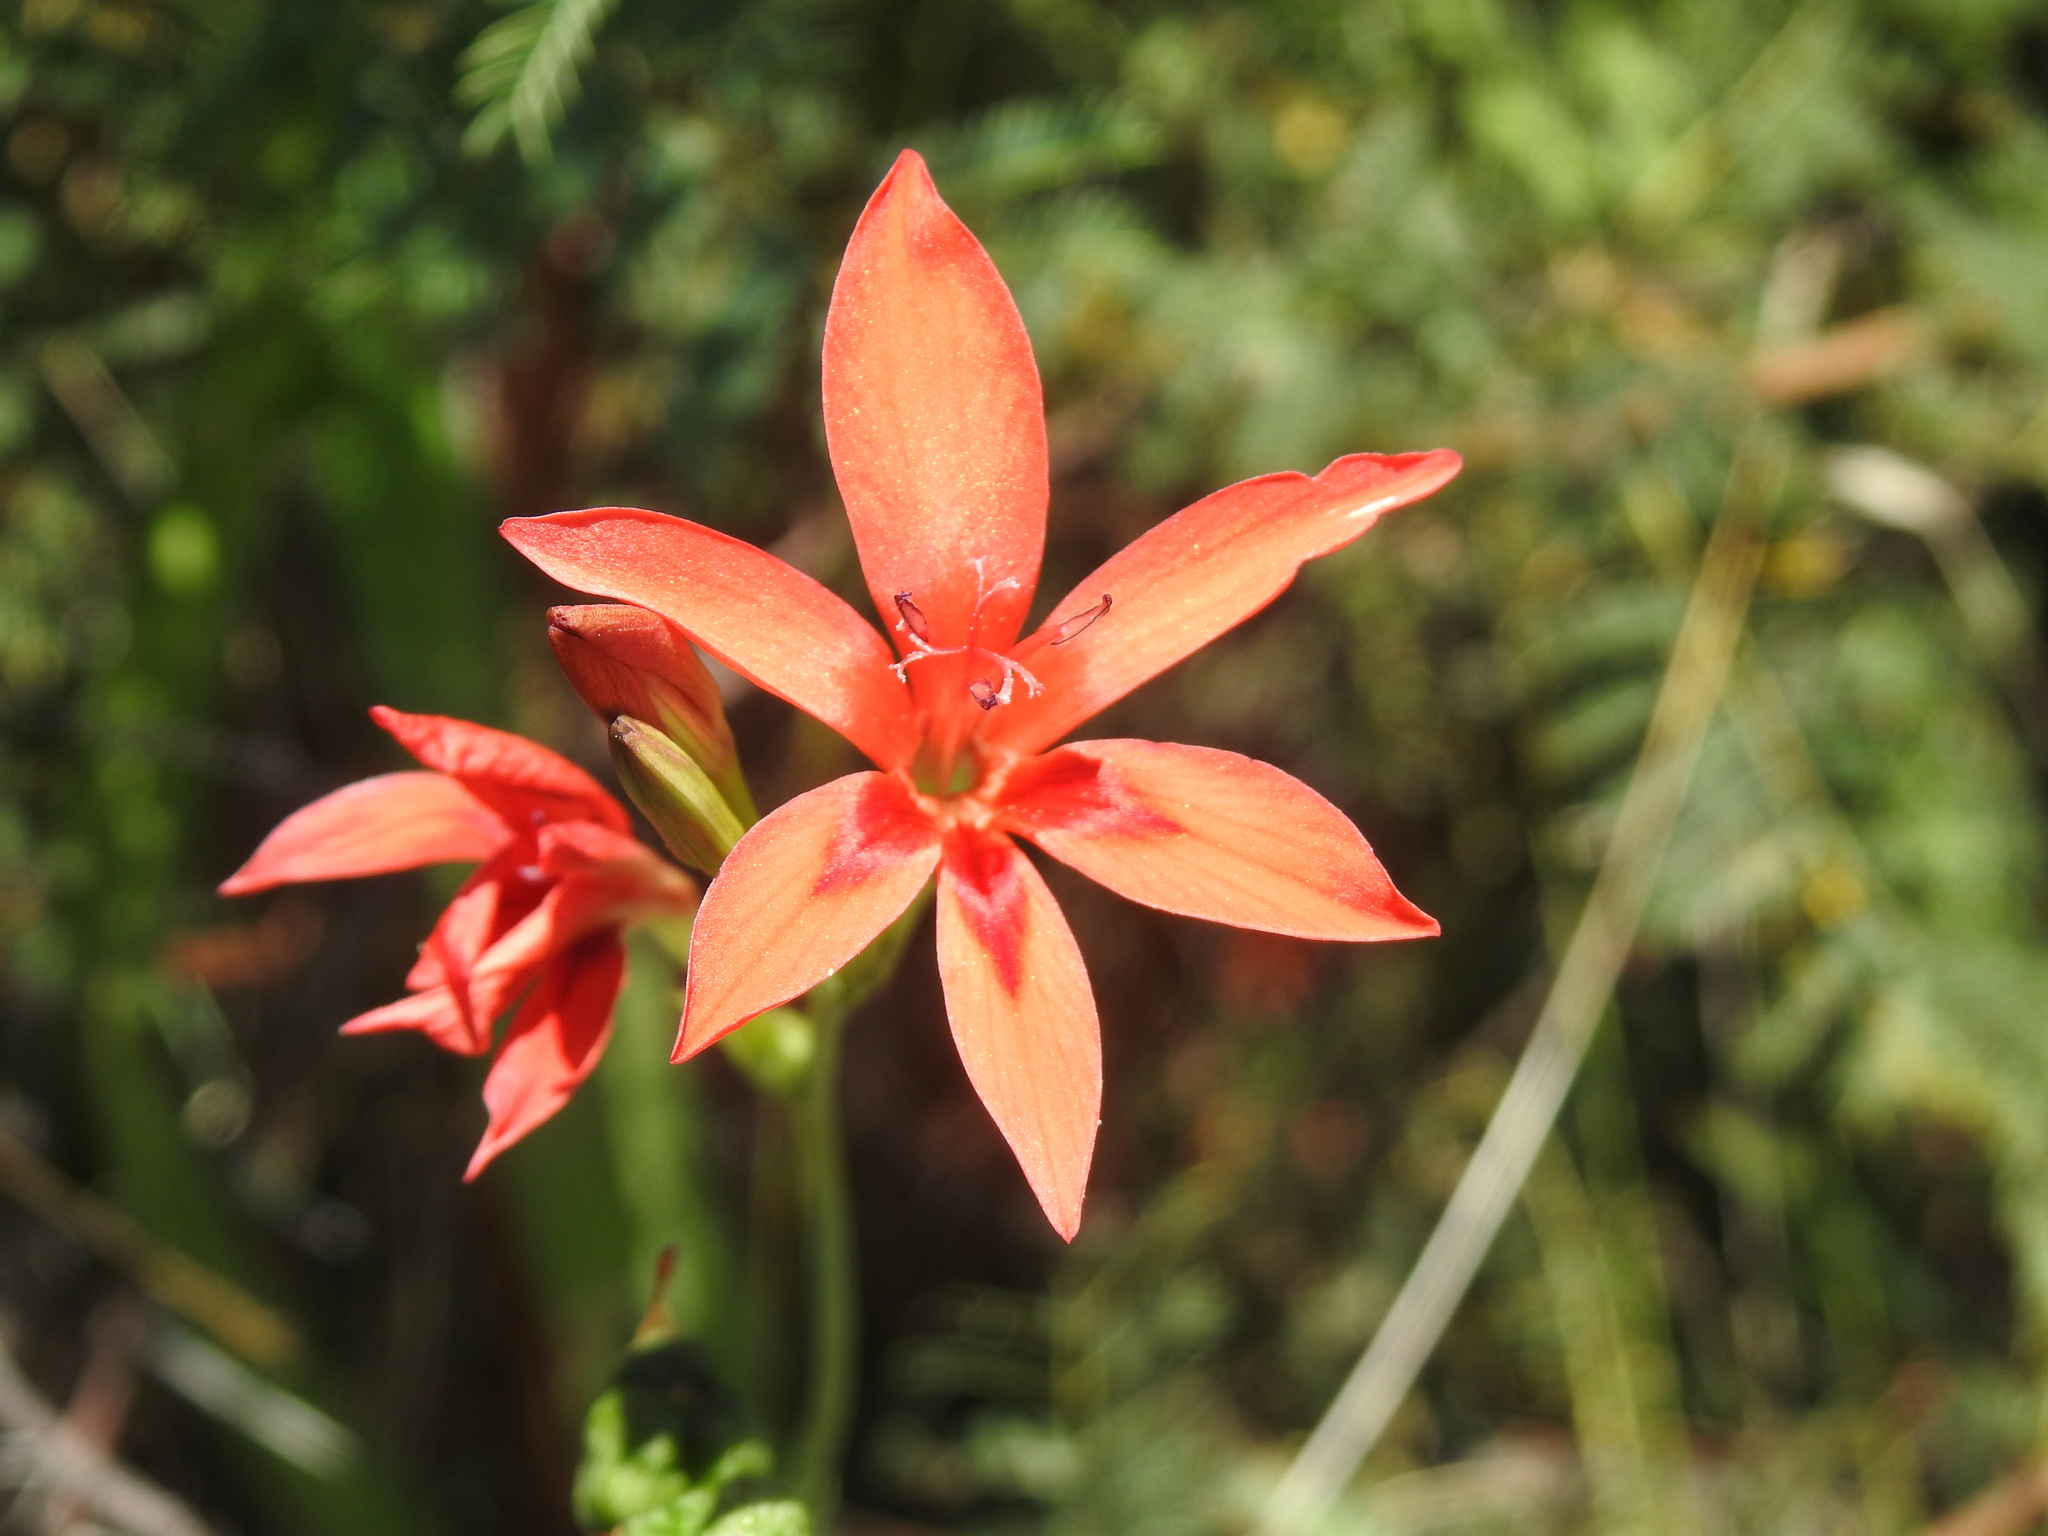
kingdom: Plantae
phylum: Tracheophyta
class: Liliopsida
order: Asparagales
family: Iridaceae
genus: Freesia
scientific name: Freesia grandiflora
